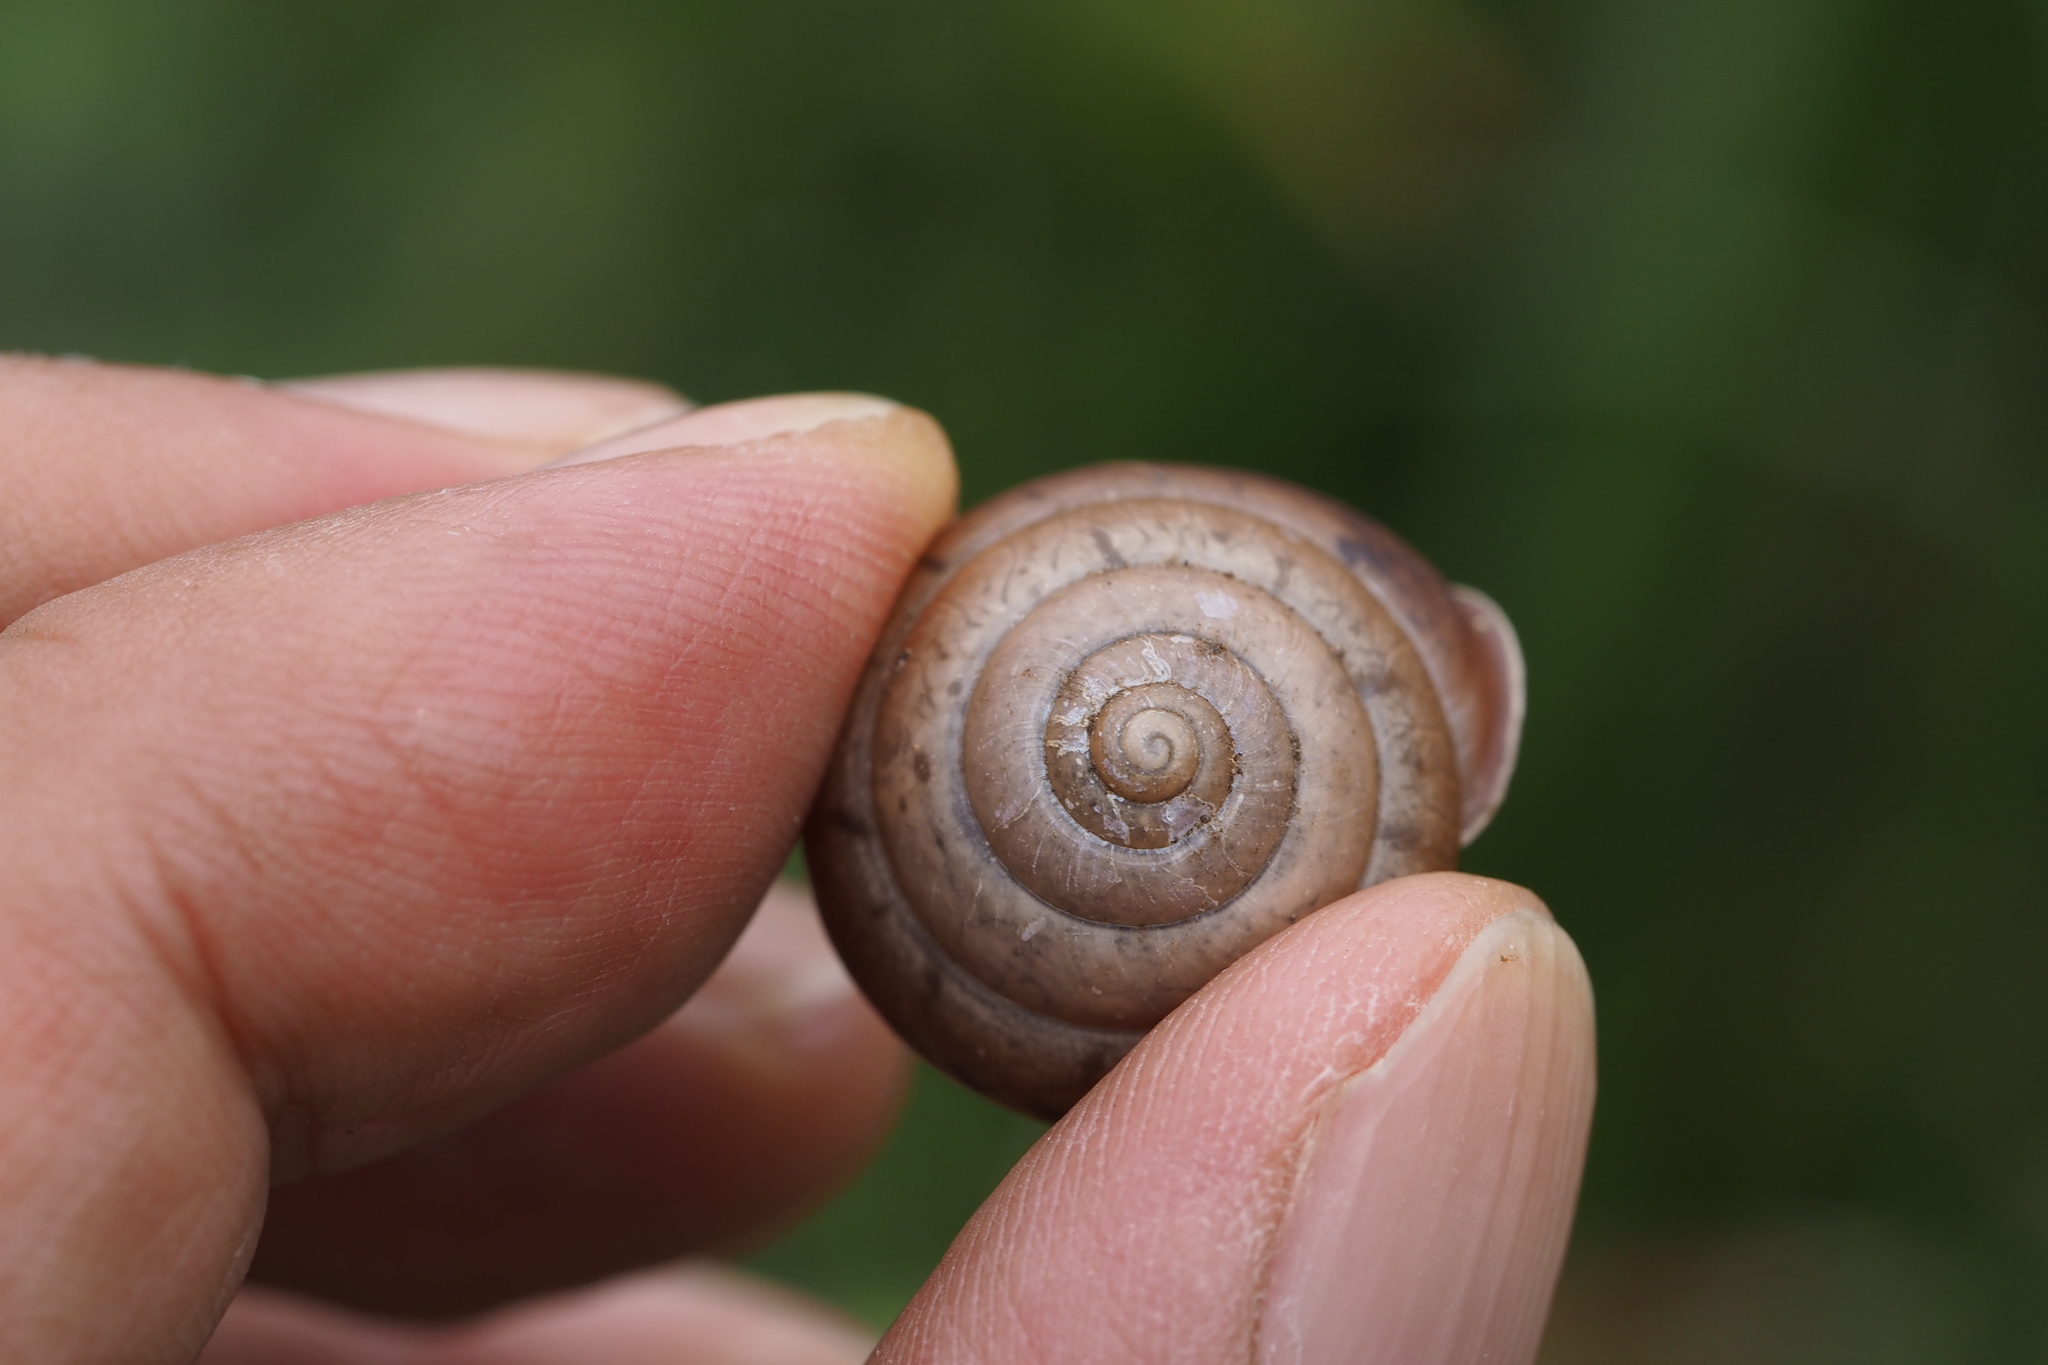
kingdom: Animalia
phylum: Mollusca
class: Gastropoda
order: Stylommatophora
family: Camaenidae
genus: Satsuma
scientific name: Satsuma japonica
